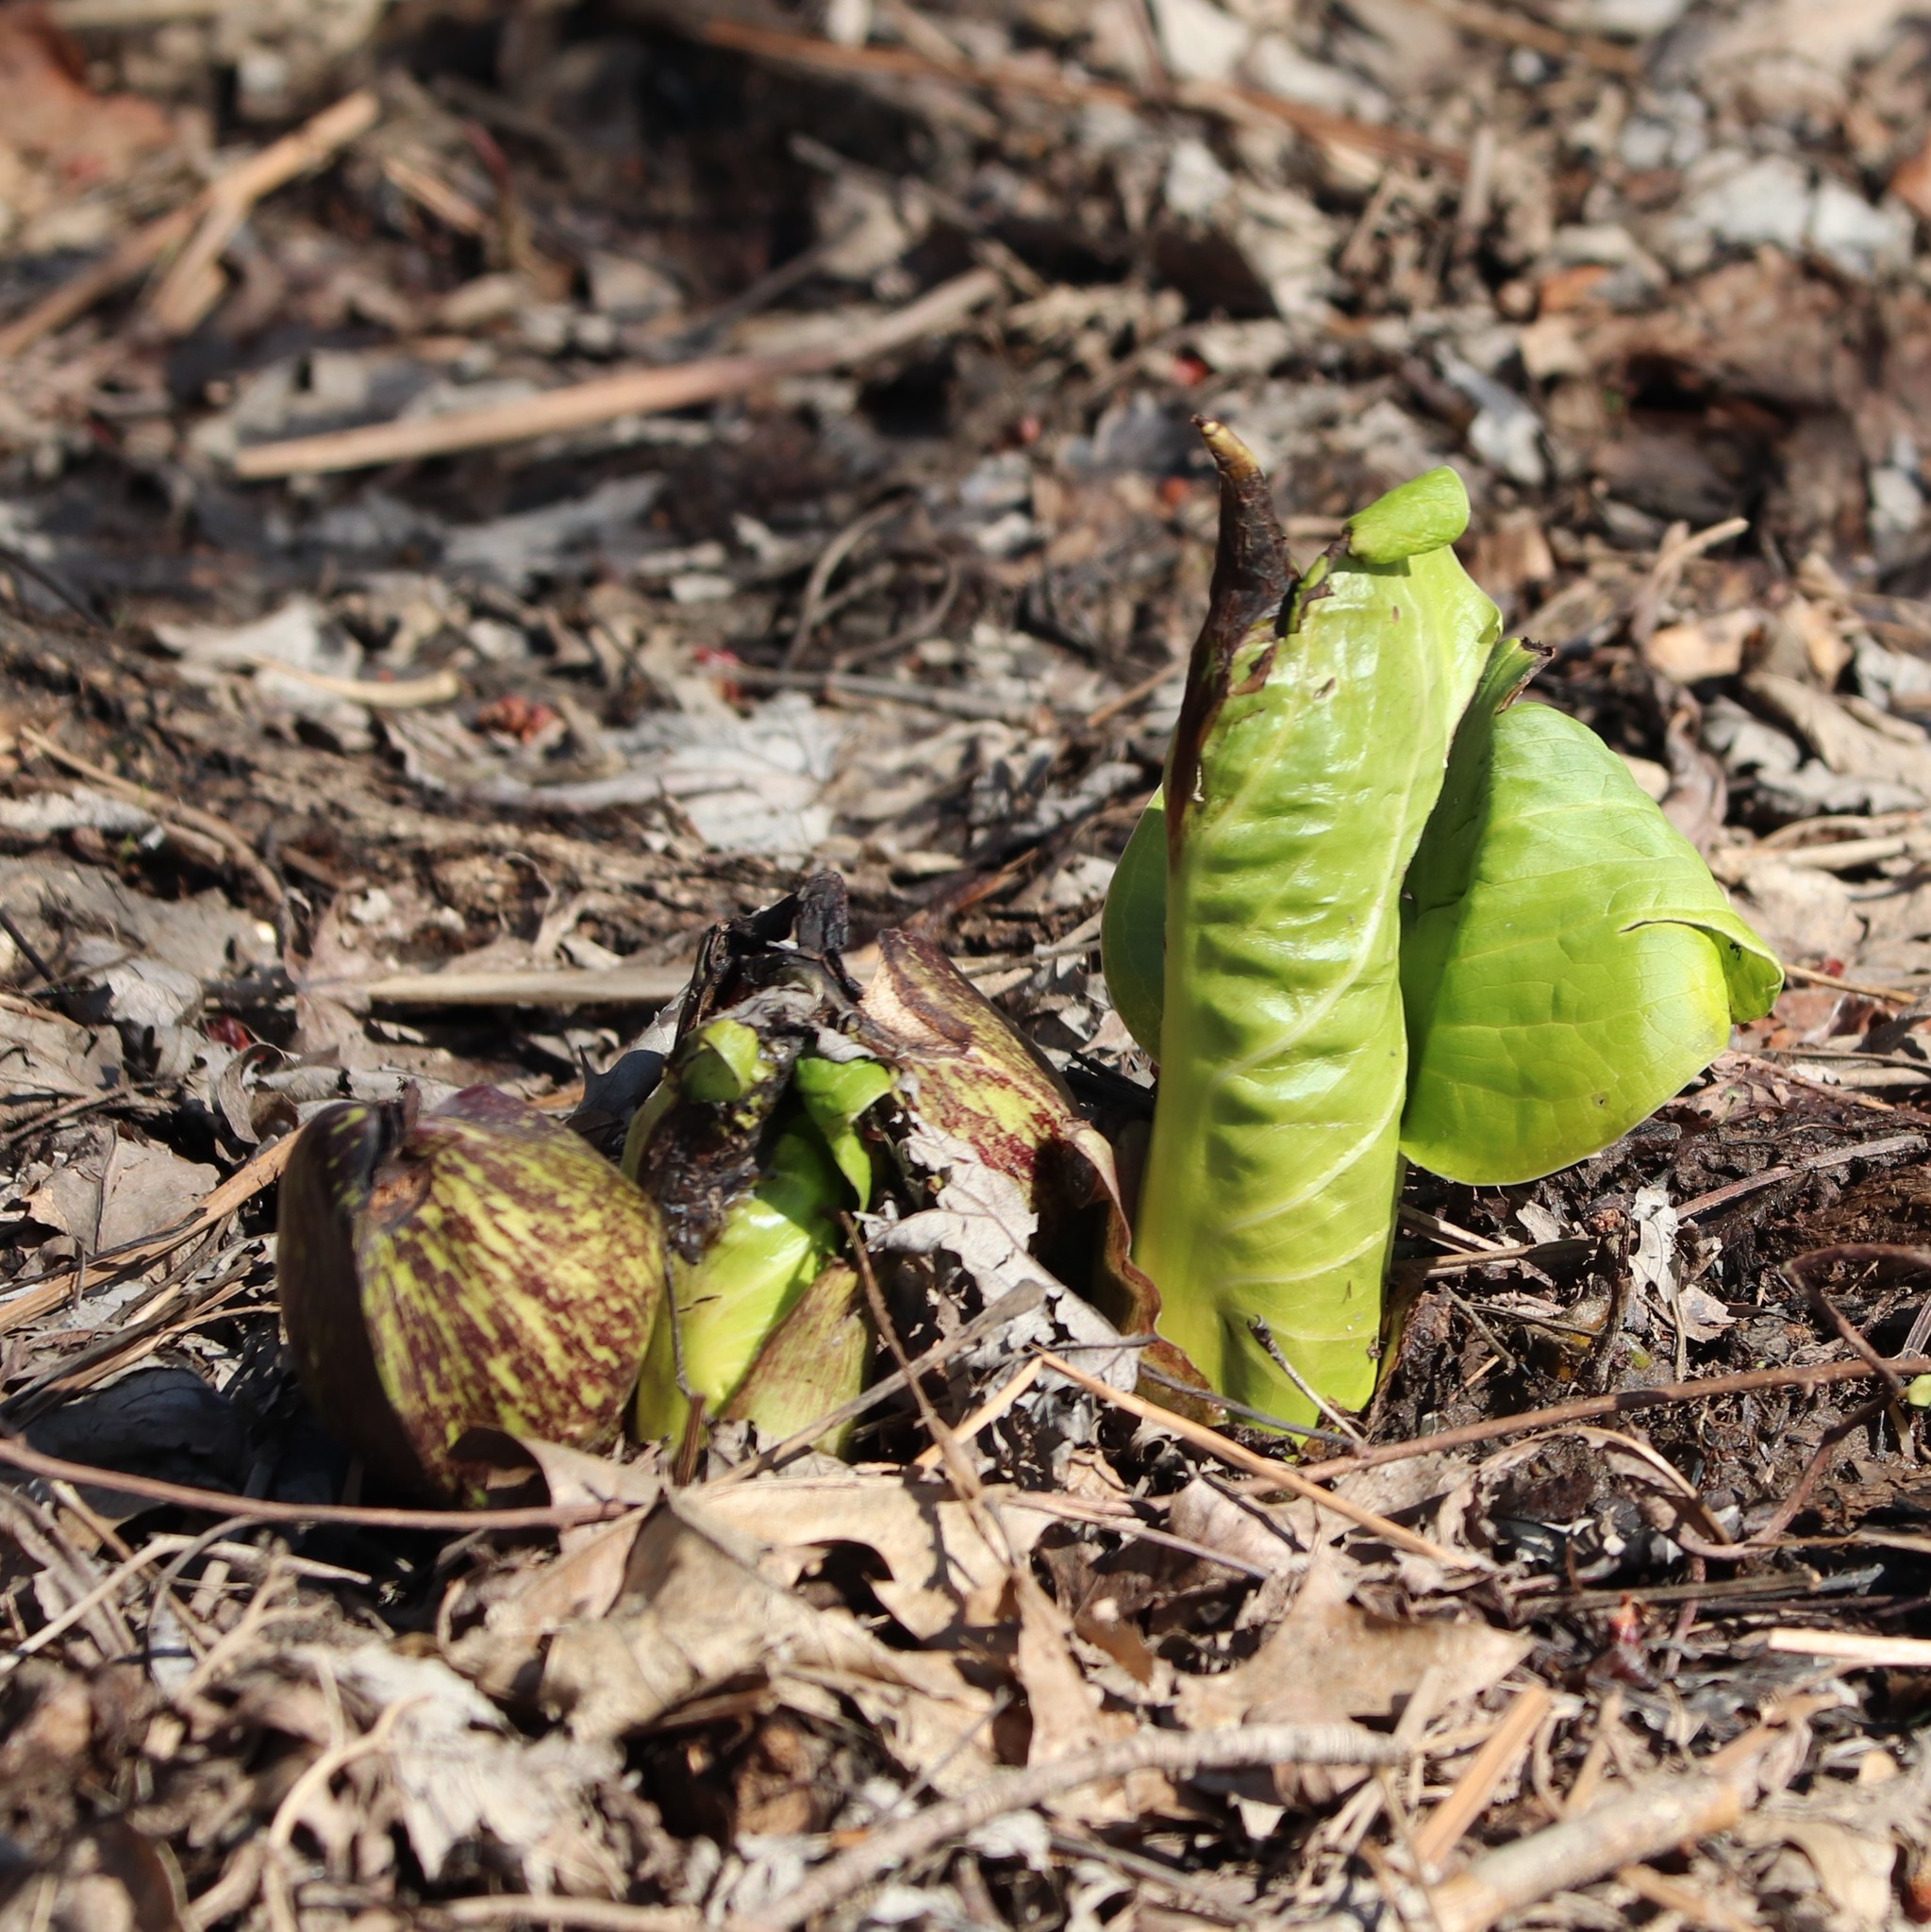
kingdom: Plantae
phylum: Tracheophyta
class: Liliopsida
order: Alismatales
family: Araceae
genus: Symplocarpus
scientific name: Symplocarpus foetidus
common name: Eastern skunk cabbage
